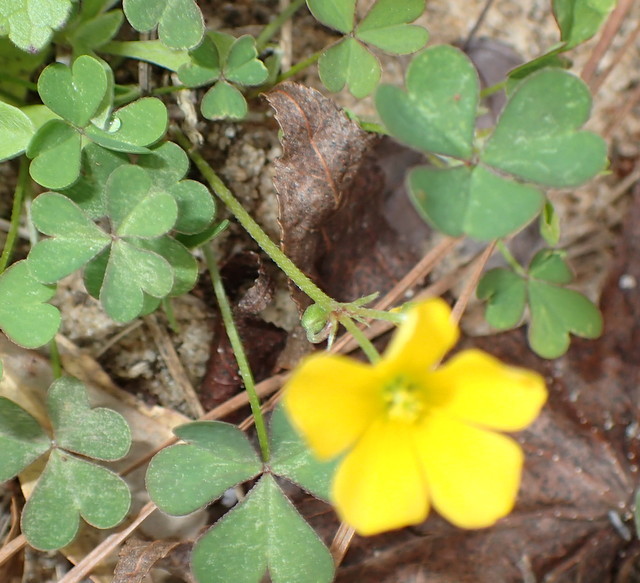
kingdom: Plantae
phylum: Tracheophyta
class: Magnoliopsida
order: Oxalidales
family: Oxalidaceae
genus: Oxalis
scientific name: Oxalis corniculata
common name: Procumbent yellow-sorrel
